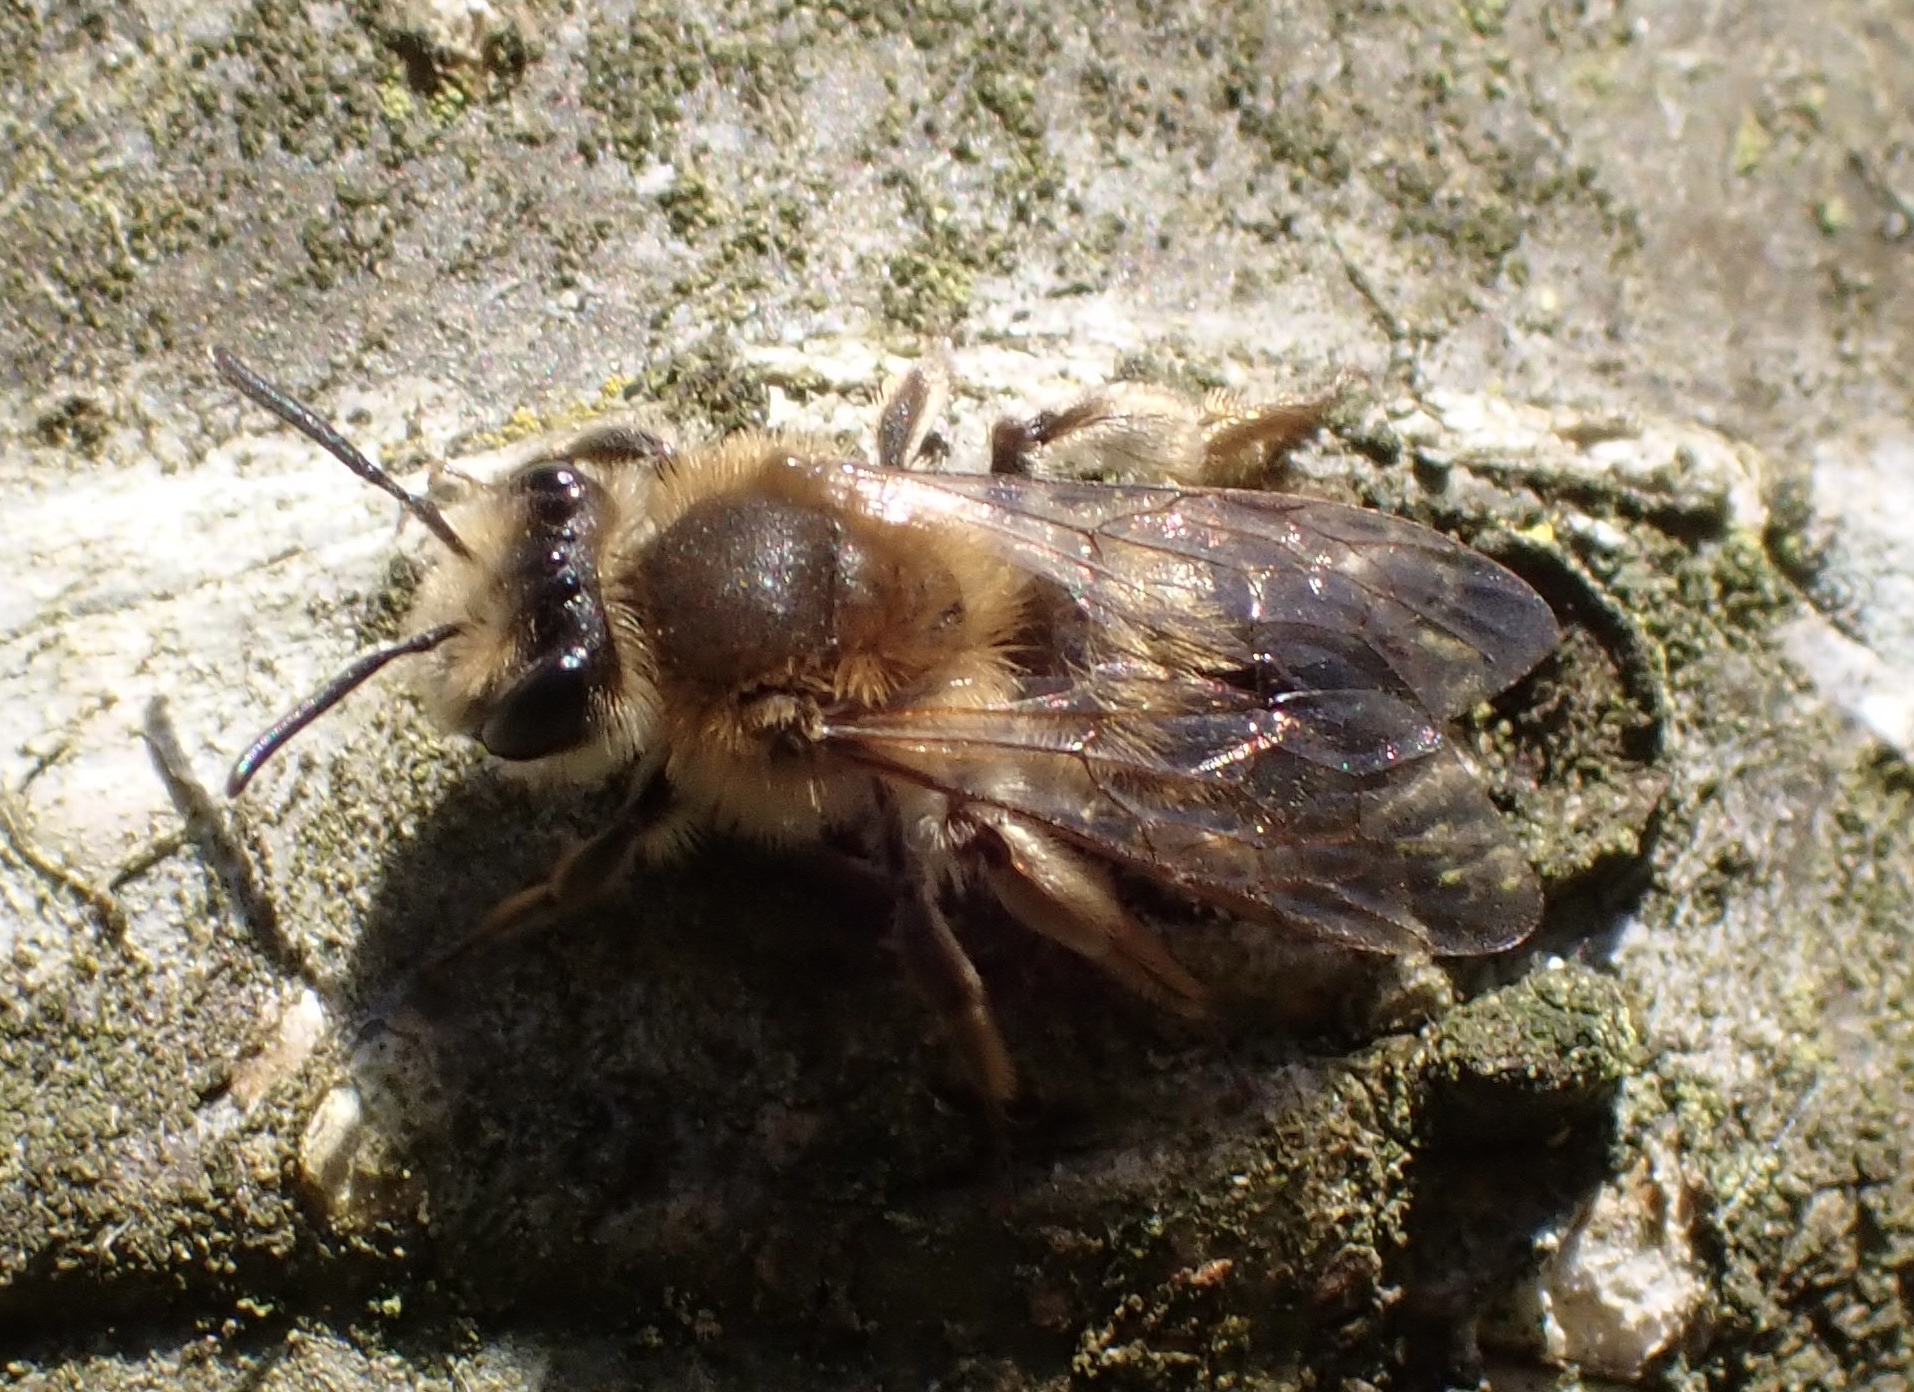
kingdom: Animalia
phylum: Arthropoda
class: Insecta
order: Hymenoptera
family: Andrenidae
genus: Andrena
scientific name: Andrena tibialis
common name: Grey-gastered mining bee
